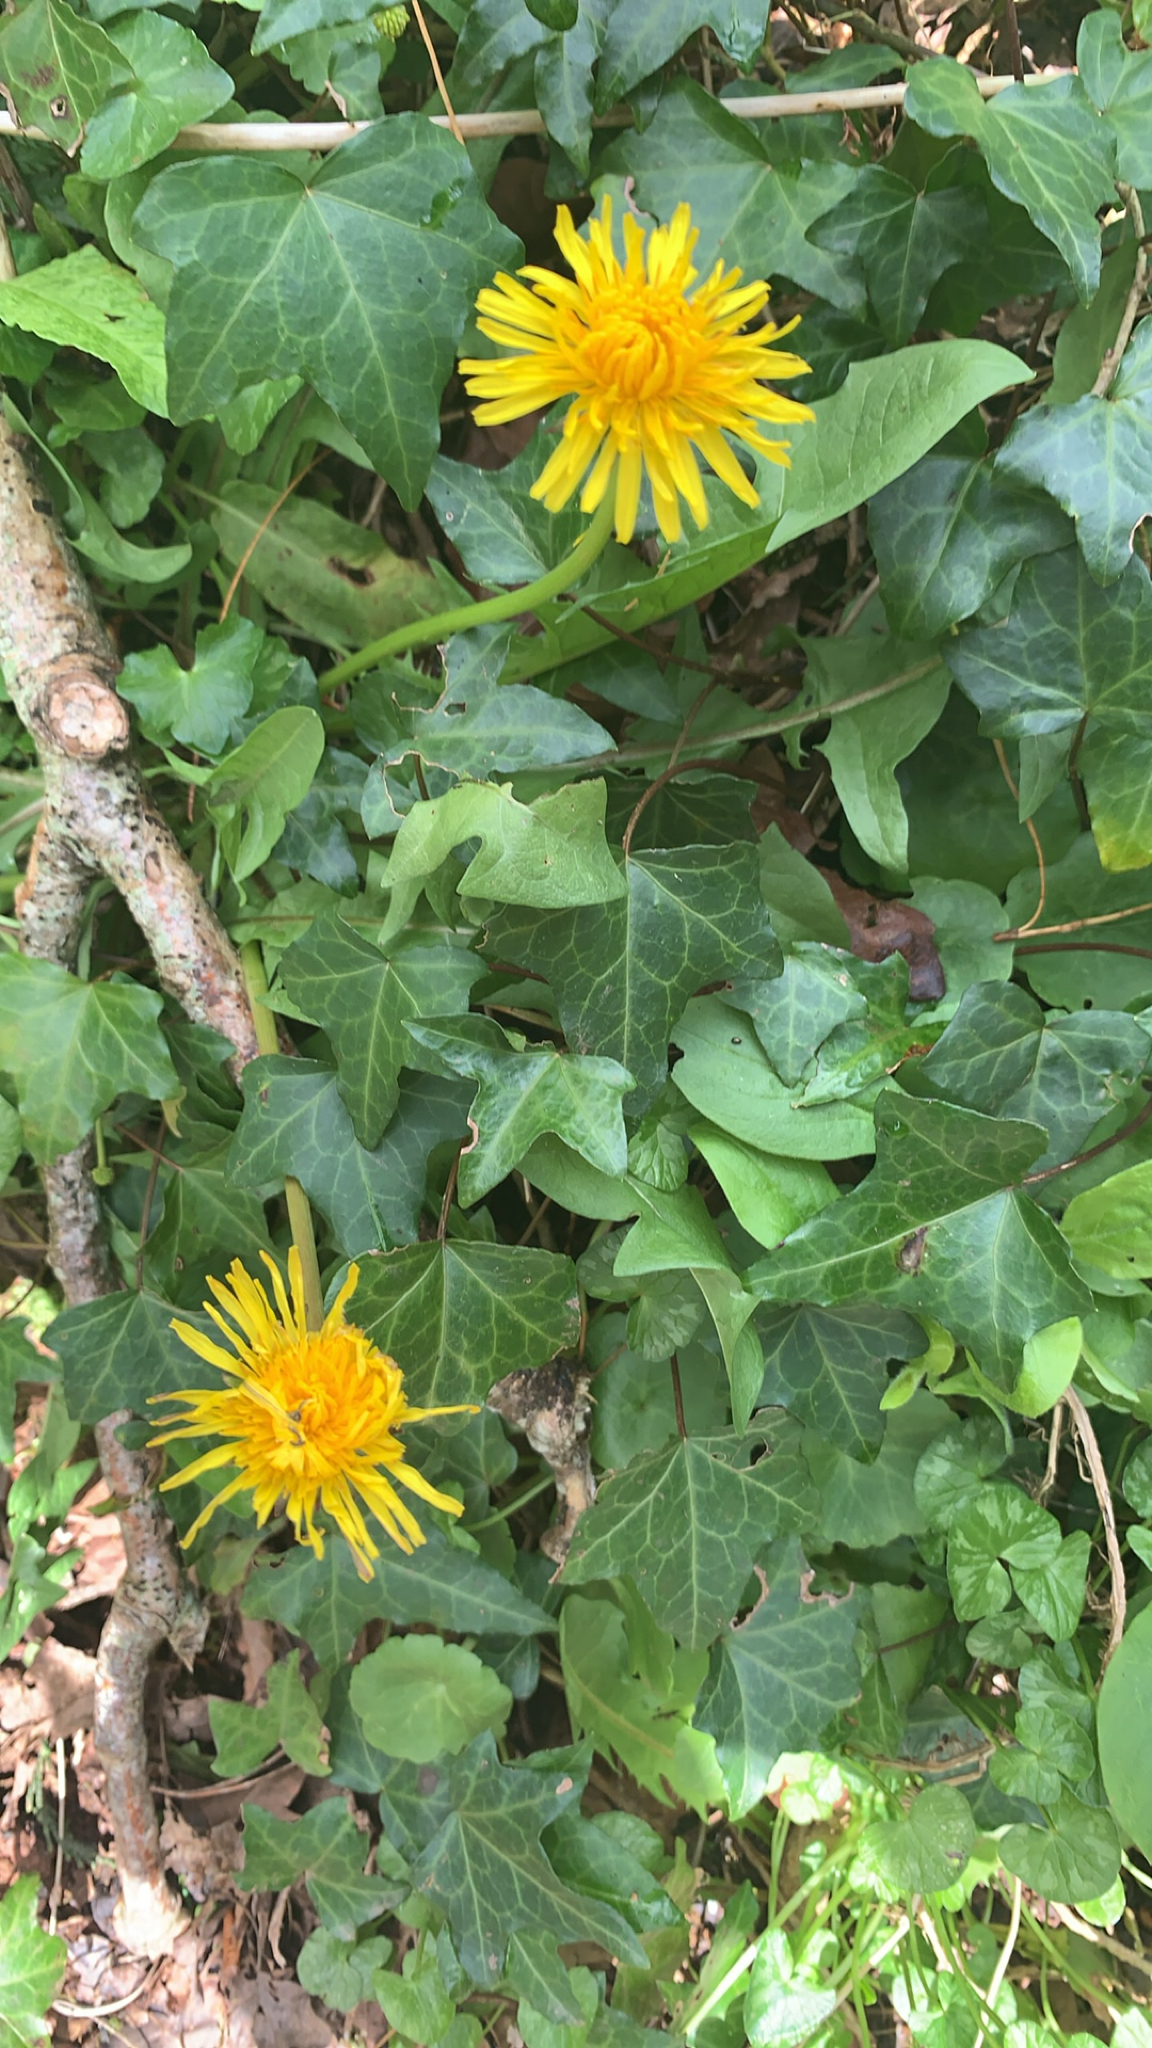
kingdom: Plantae
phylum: Tracheophyta
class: Magnoliopsida
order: Asterales
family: Asteraceae
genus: Taraxacum
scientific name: Taraxacum officinale
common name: Common dandelion
